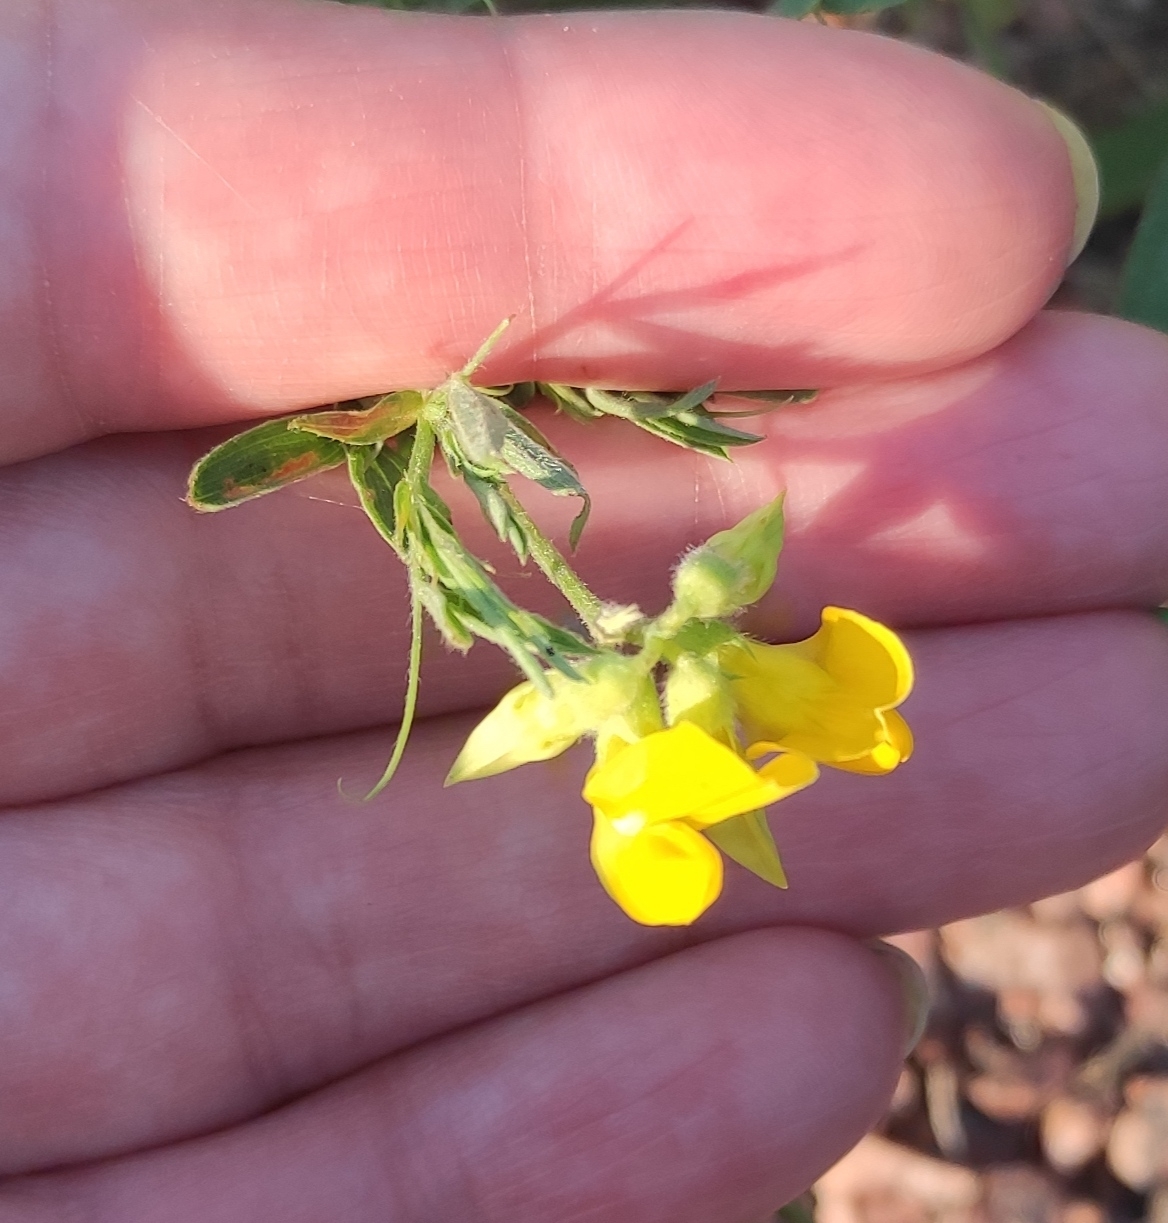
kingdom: Plantae
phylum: Tracheophyta
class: Magnoliopsida
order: Fabales
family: Fabaceae
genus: Lathyrus
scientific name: Lathyrus pratensis
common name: Meadow vetchling
